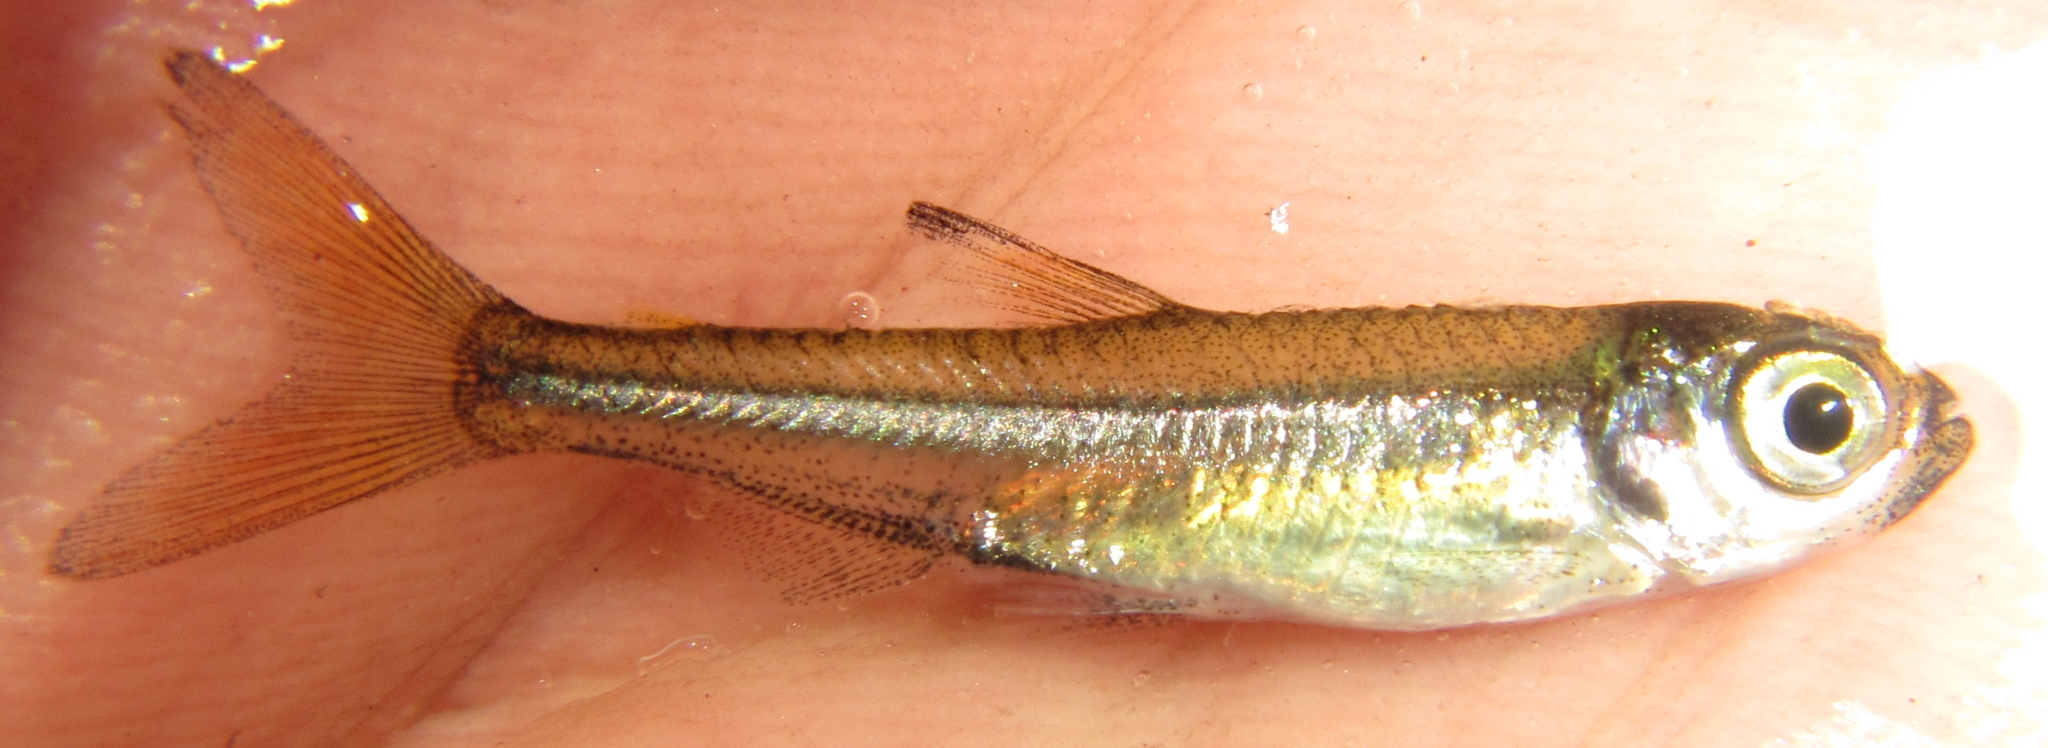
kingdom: Animalia
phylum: Chordata
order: Characiformes
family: Alestidae
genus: Rhabdalestes
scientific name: Rhabdalestes maunensis
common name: Slender robber
